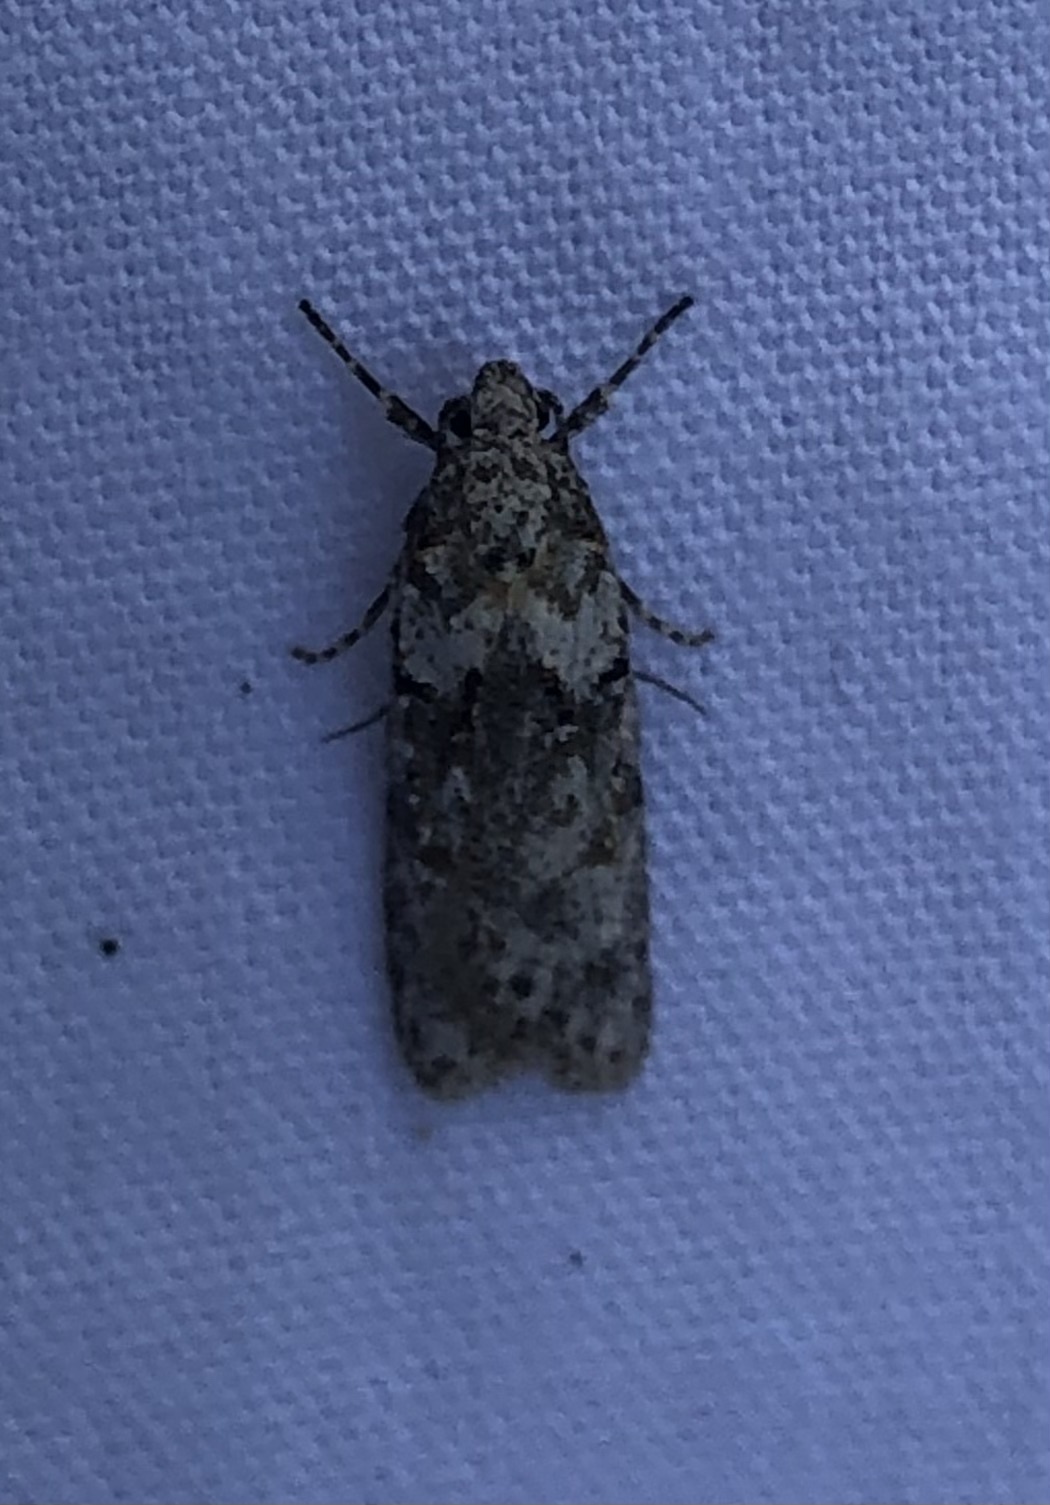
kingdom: Animalia
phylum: Arthropoda
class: Insecta
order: Lepidoptera
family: Oecophoridae
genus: Izatha
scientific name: Izatha convulsella
